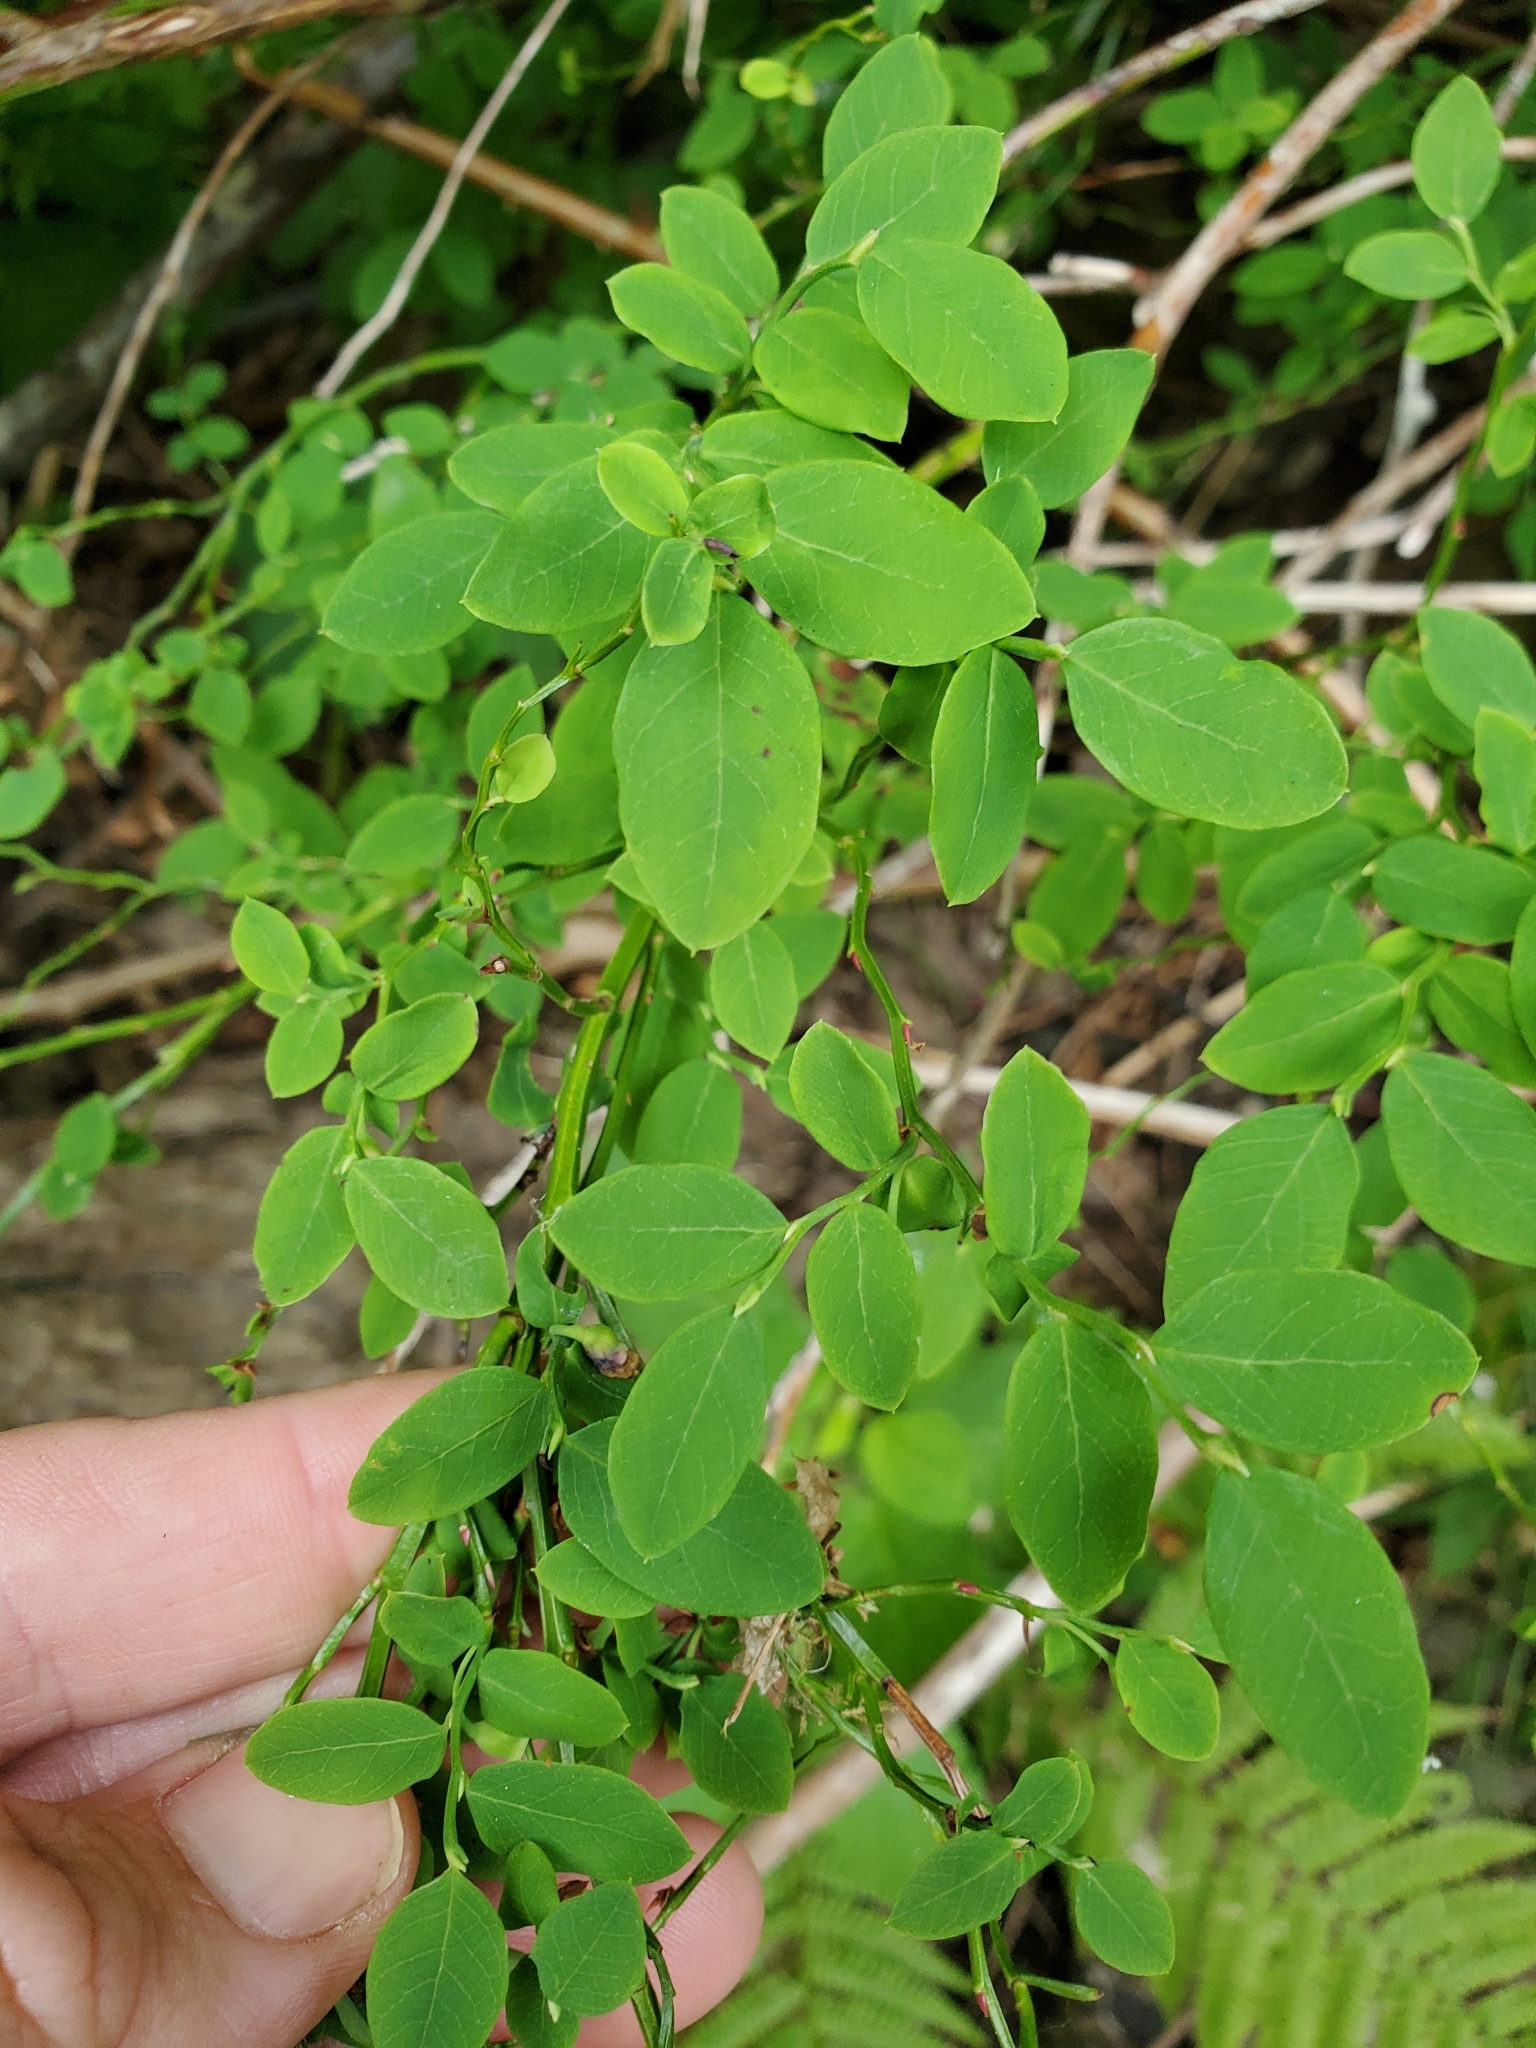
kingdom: Plantae
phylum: Tracheophyta
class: Magnoliopsida
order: Ericales
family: Ericaceae
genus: Vaccinium
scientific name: Vaccinium parvifolium
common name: Red-huckleberry
